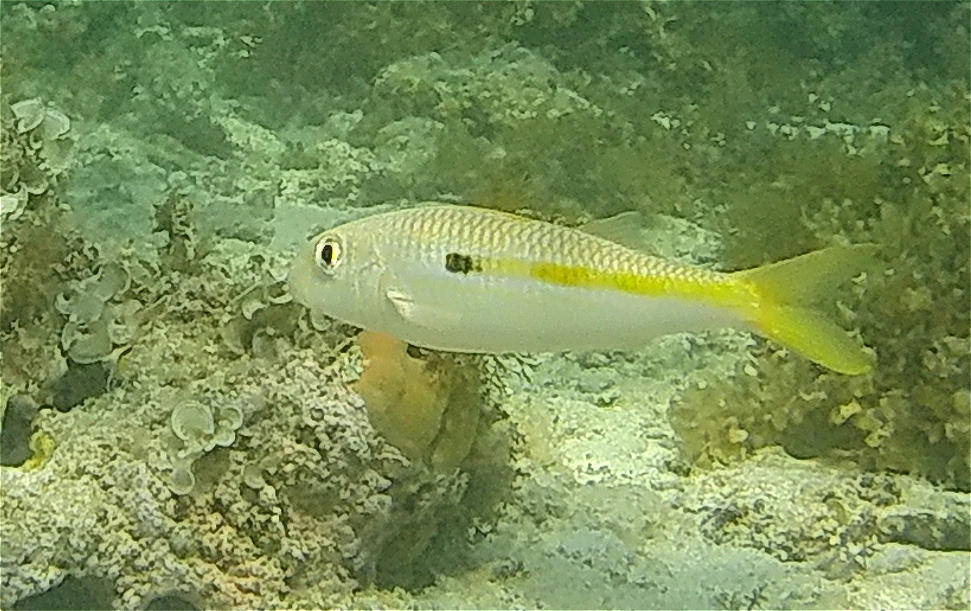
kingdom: Animalia
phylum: Chordata
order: Perciformes
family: Mullidae
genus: Mulloidichthys
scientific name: Mulloidichthys flavolineatus
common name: Yellowstripe goatfish
